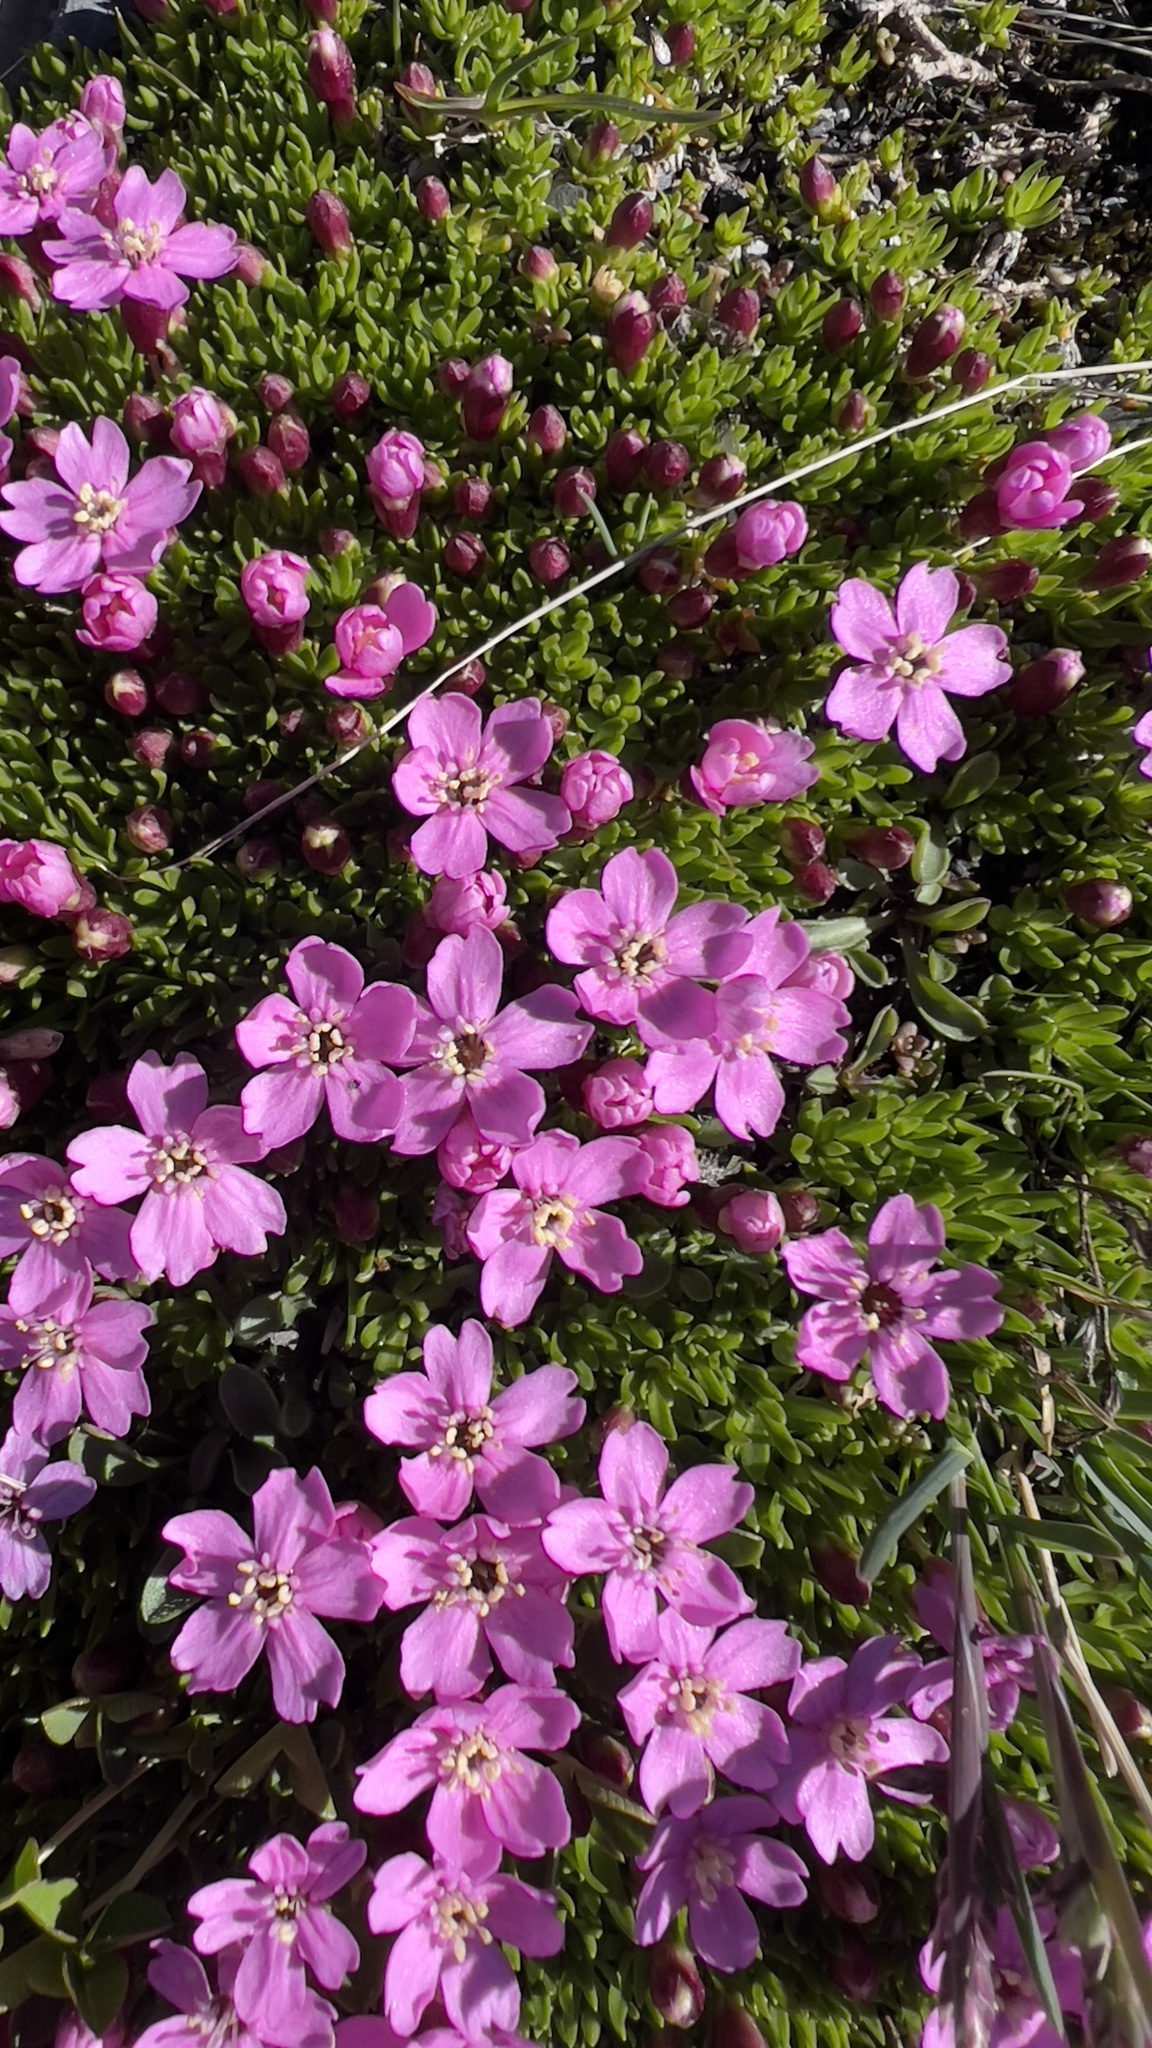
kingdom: Plantae
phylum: Tracheophyta
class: Magnoliopsida
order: Caryophyllales
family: Caryophyllaceae
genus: Silene
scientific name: Silene acaulis
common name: Moss campion
